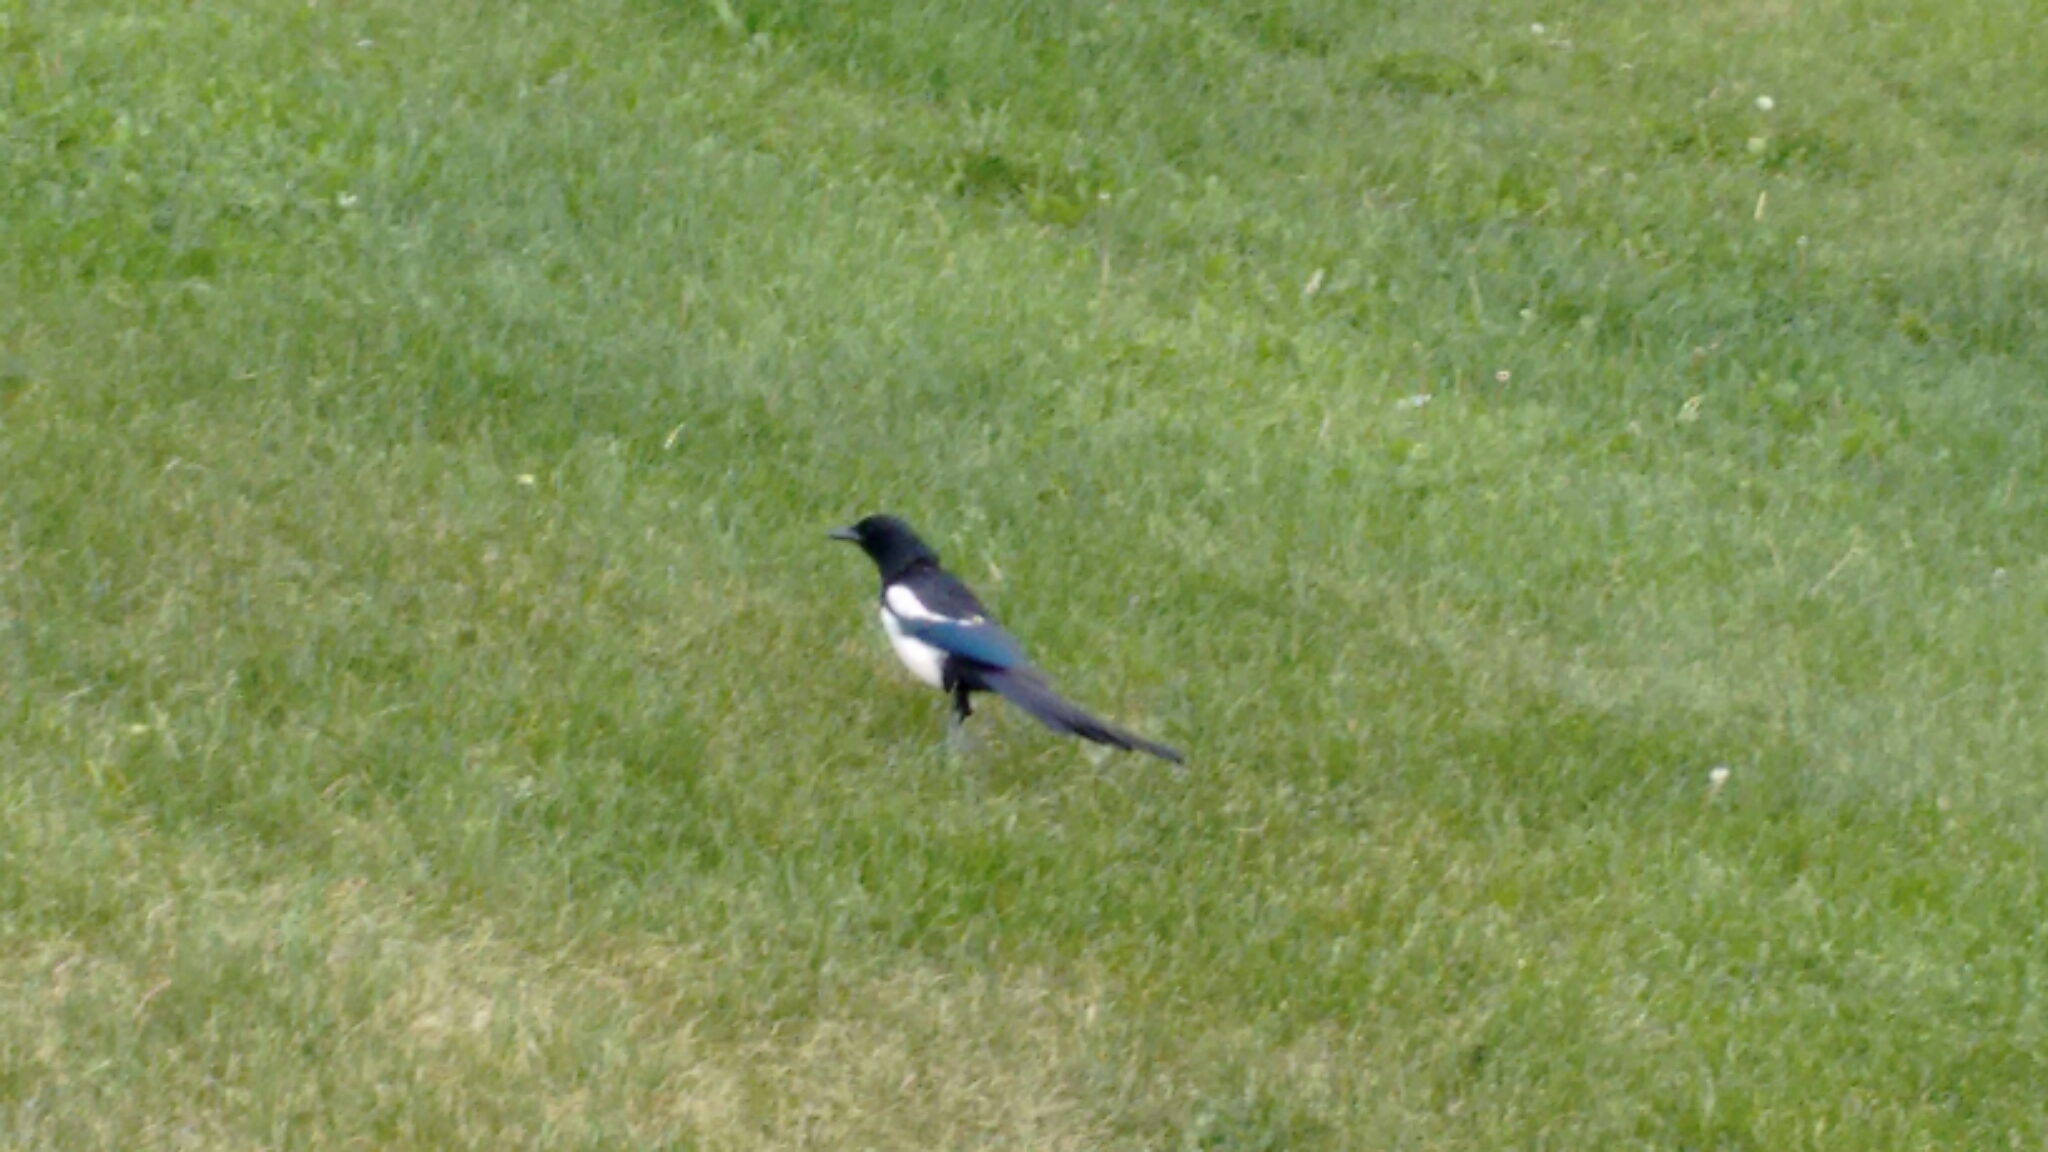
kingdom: Animalia
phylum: Chordata
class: Aves
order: Passeriformes
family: Corvidae
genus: Pica
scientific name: Pica hudsonia
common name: Black-billed magpie
